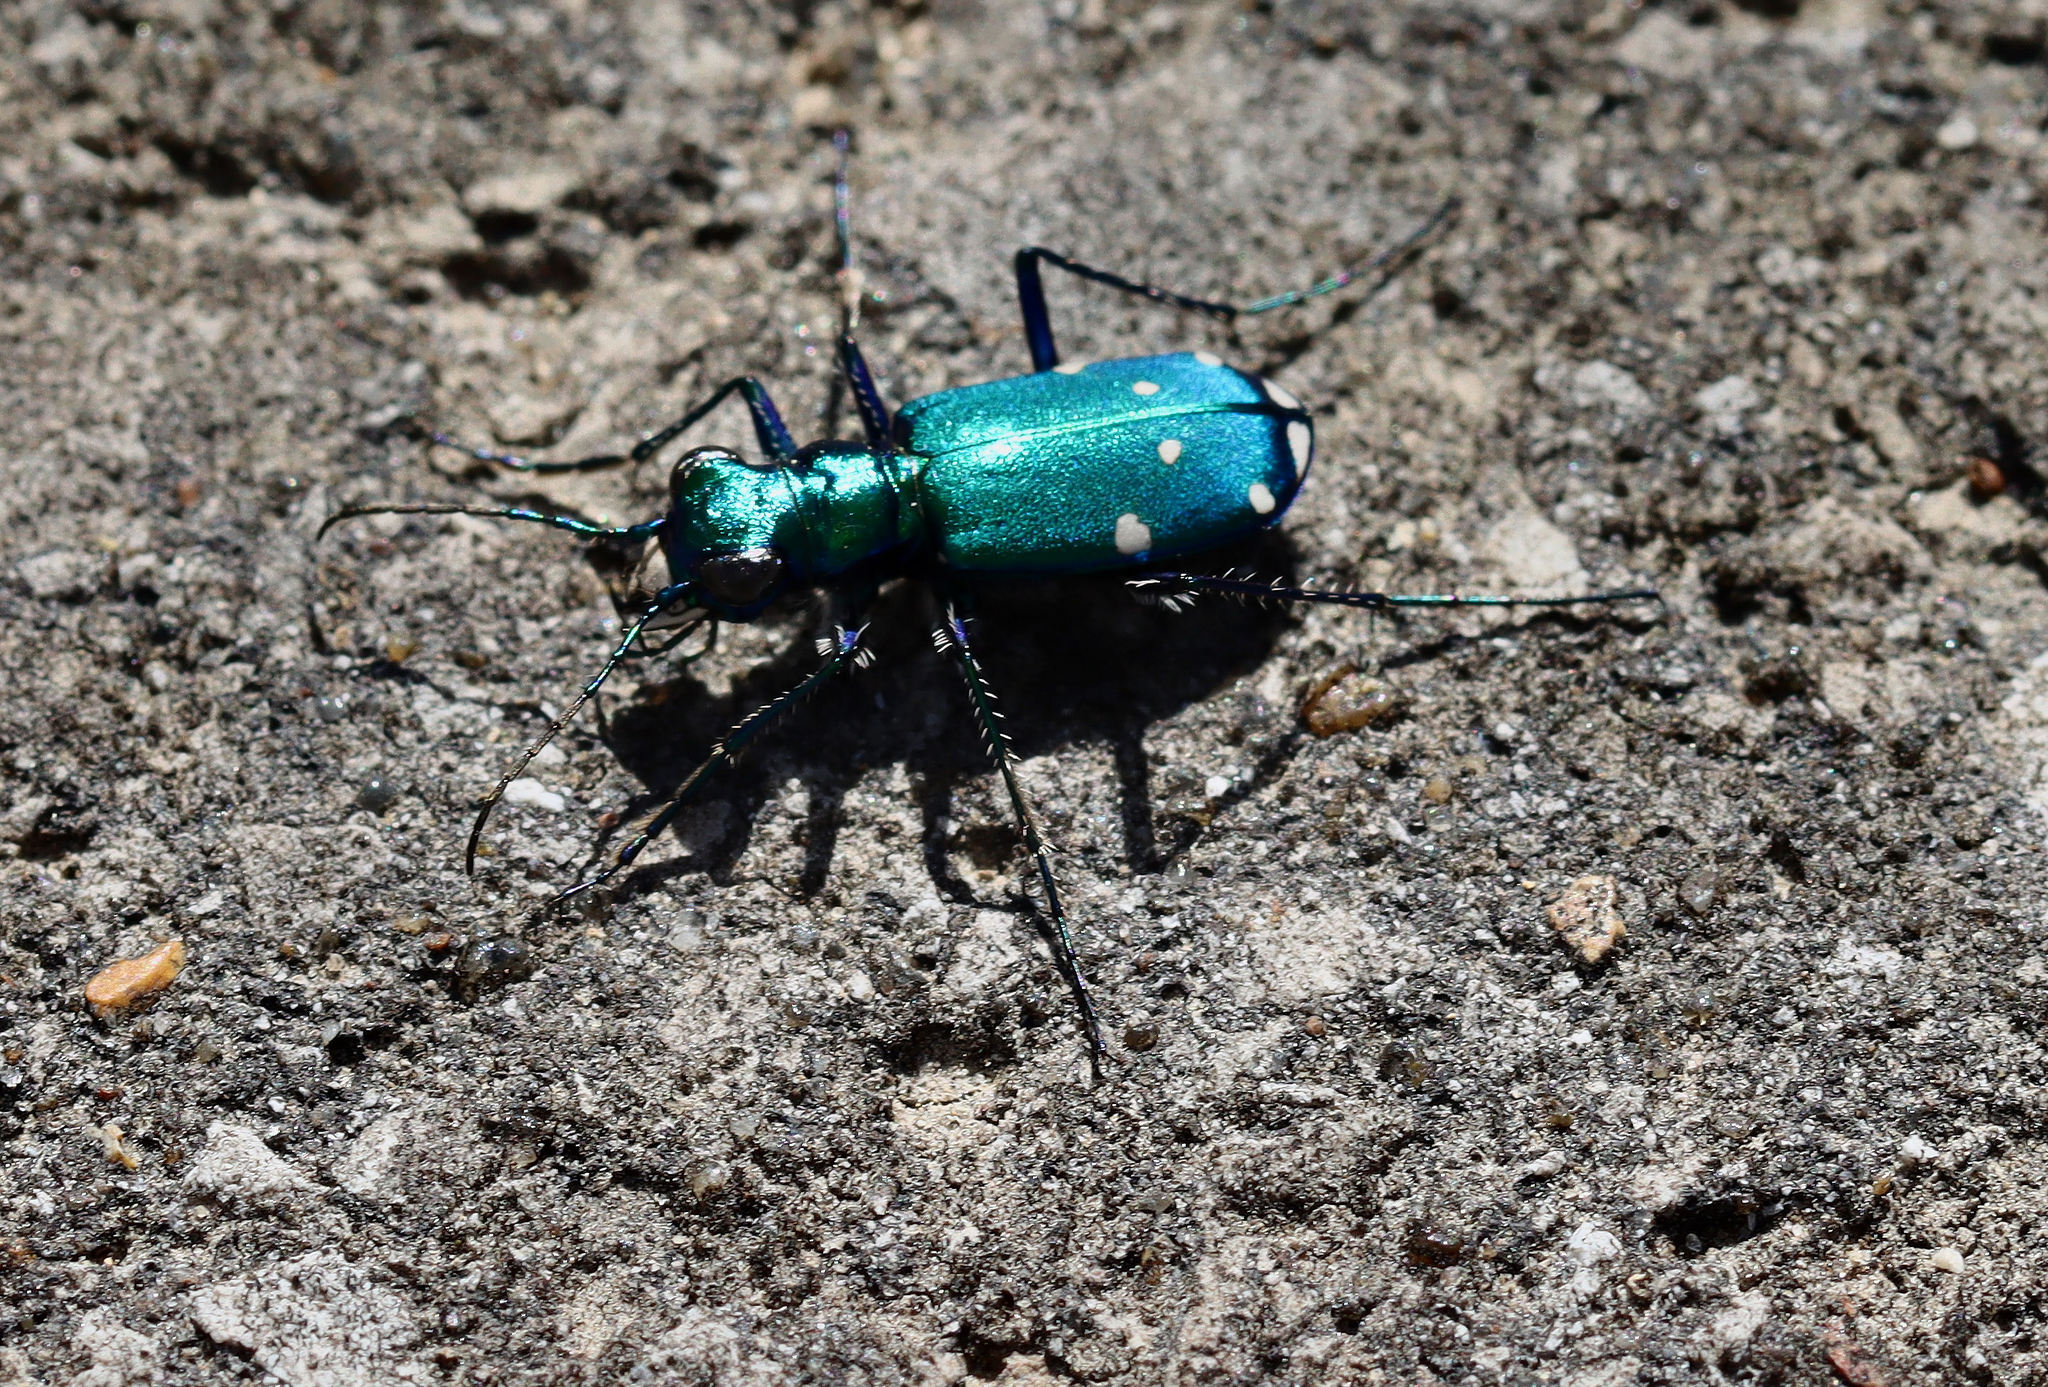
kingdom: Animalia
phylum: Arthropoda
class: Insecta
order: Coleoptera
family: Carabidae
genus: Cicindela
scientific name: Cicindela sexguttata
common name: Six-spotted tiger beetle
